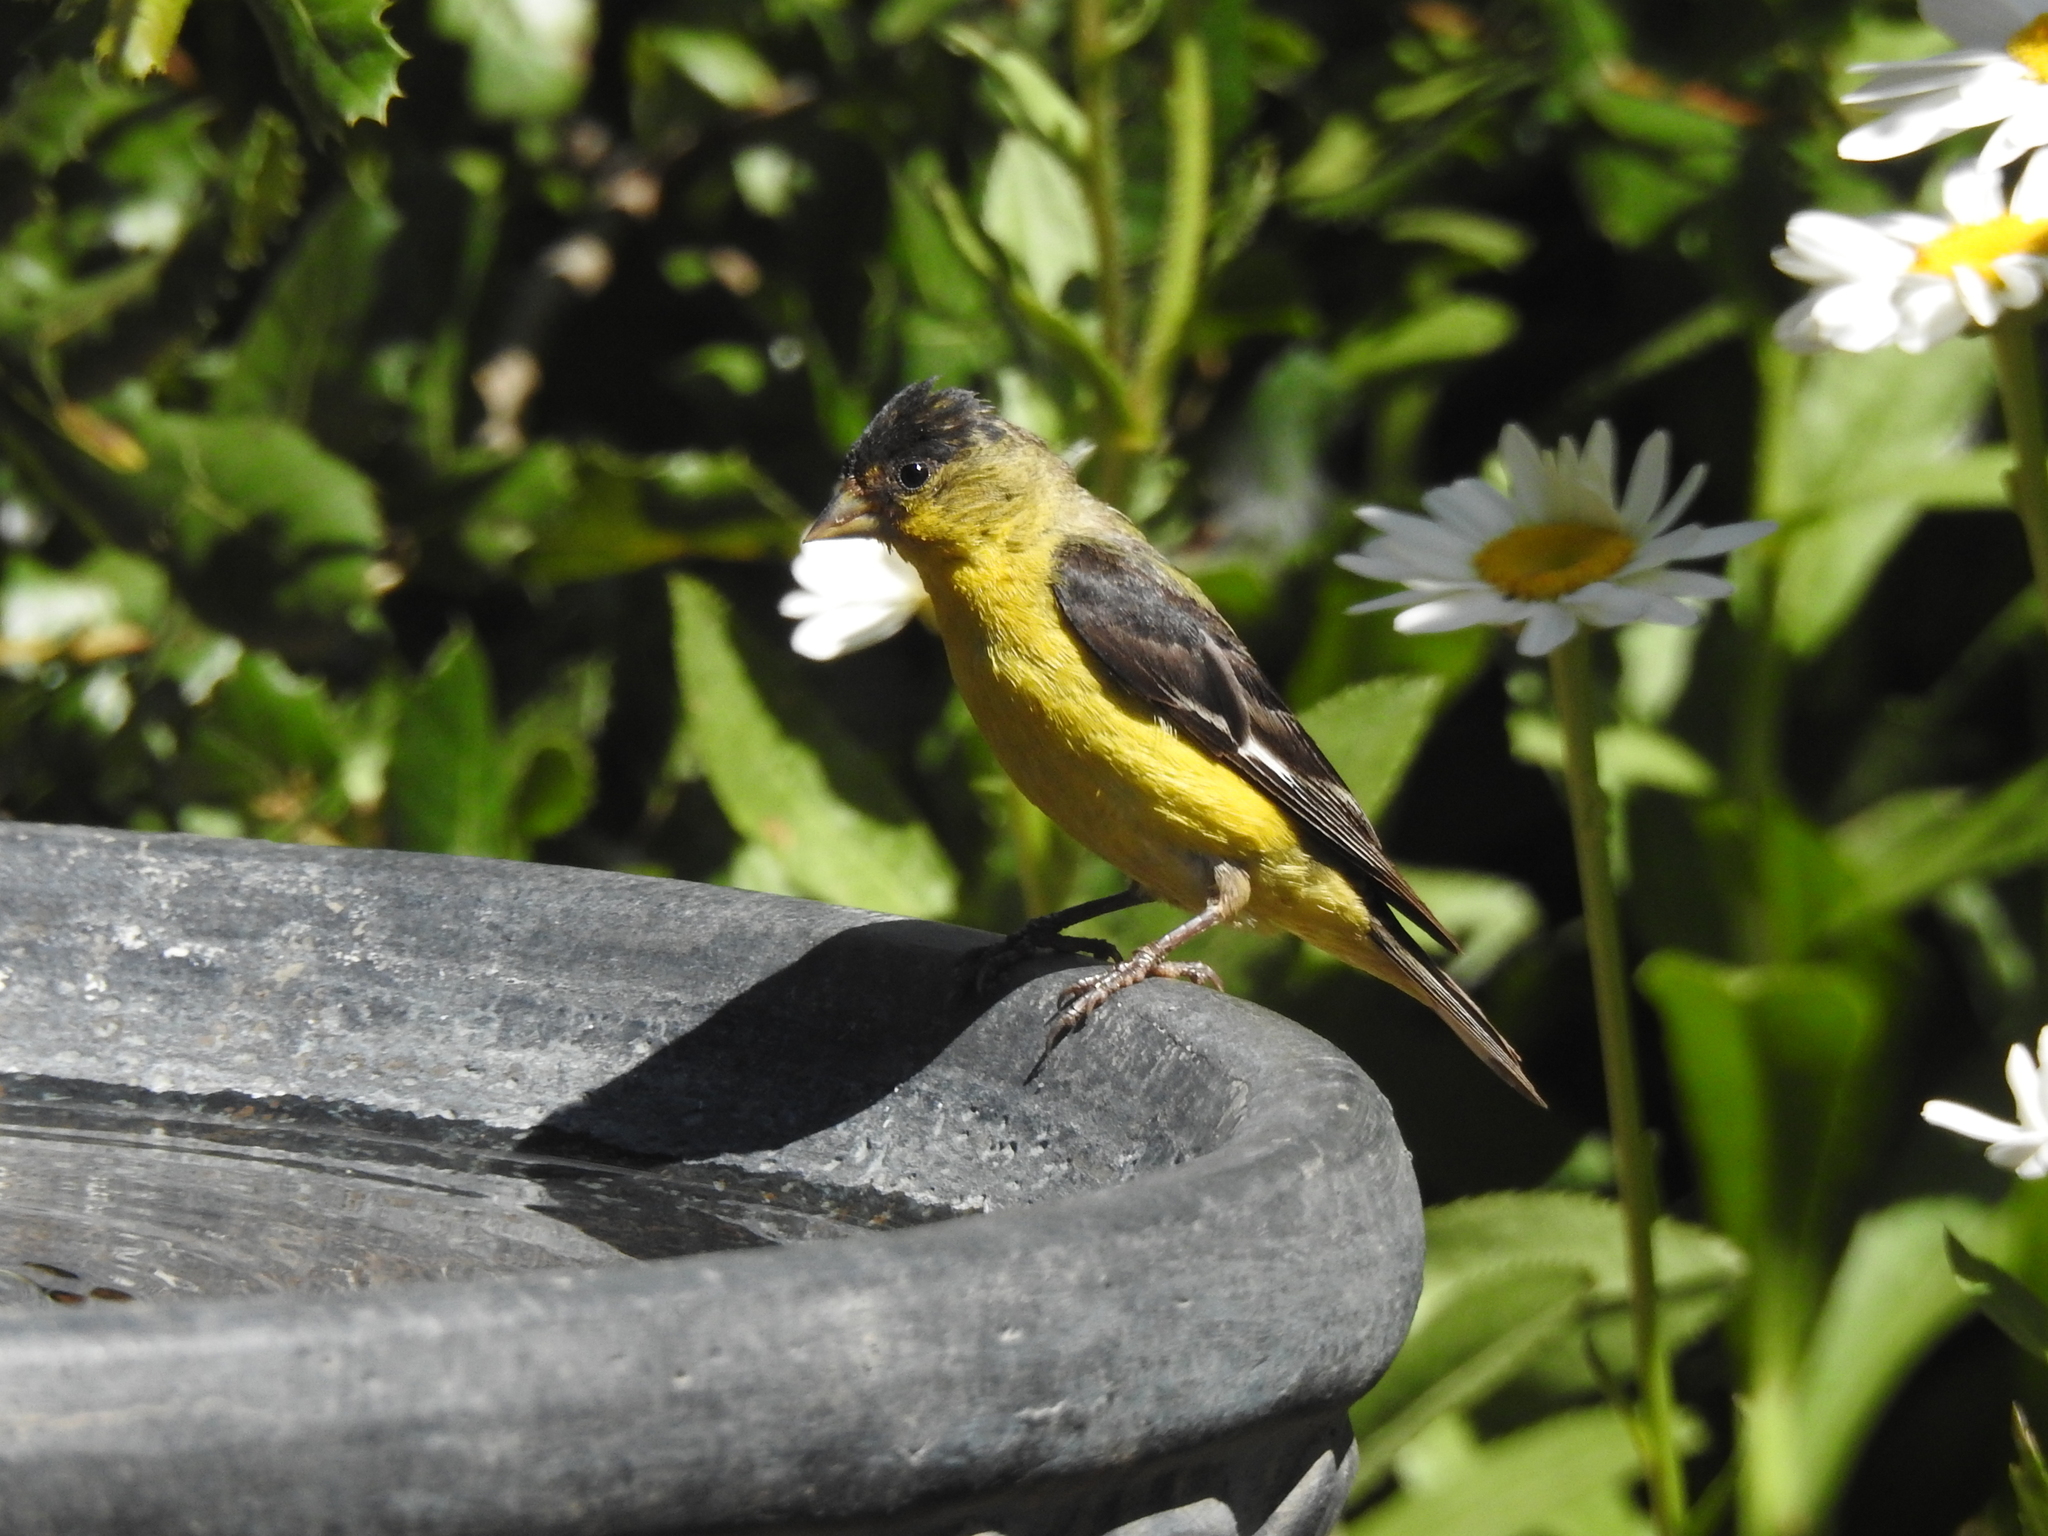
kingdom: Animalia
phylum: Chordata
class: Aves
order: Passeriformes
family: Fringillidae
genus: Spinus
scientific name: Spinus psaltria
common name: Lesser goldfinch
